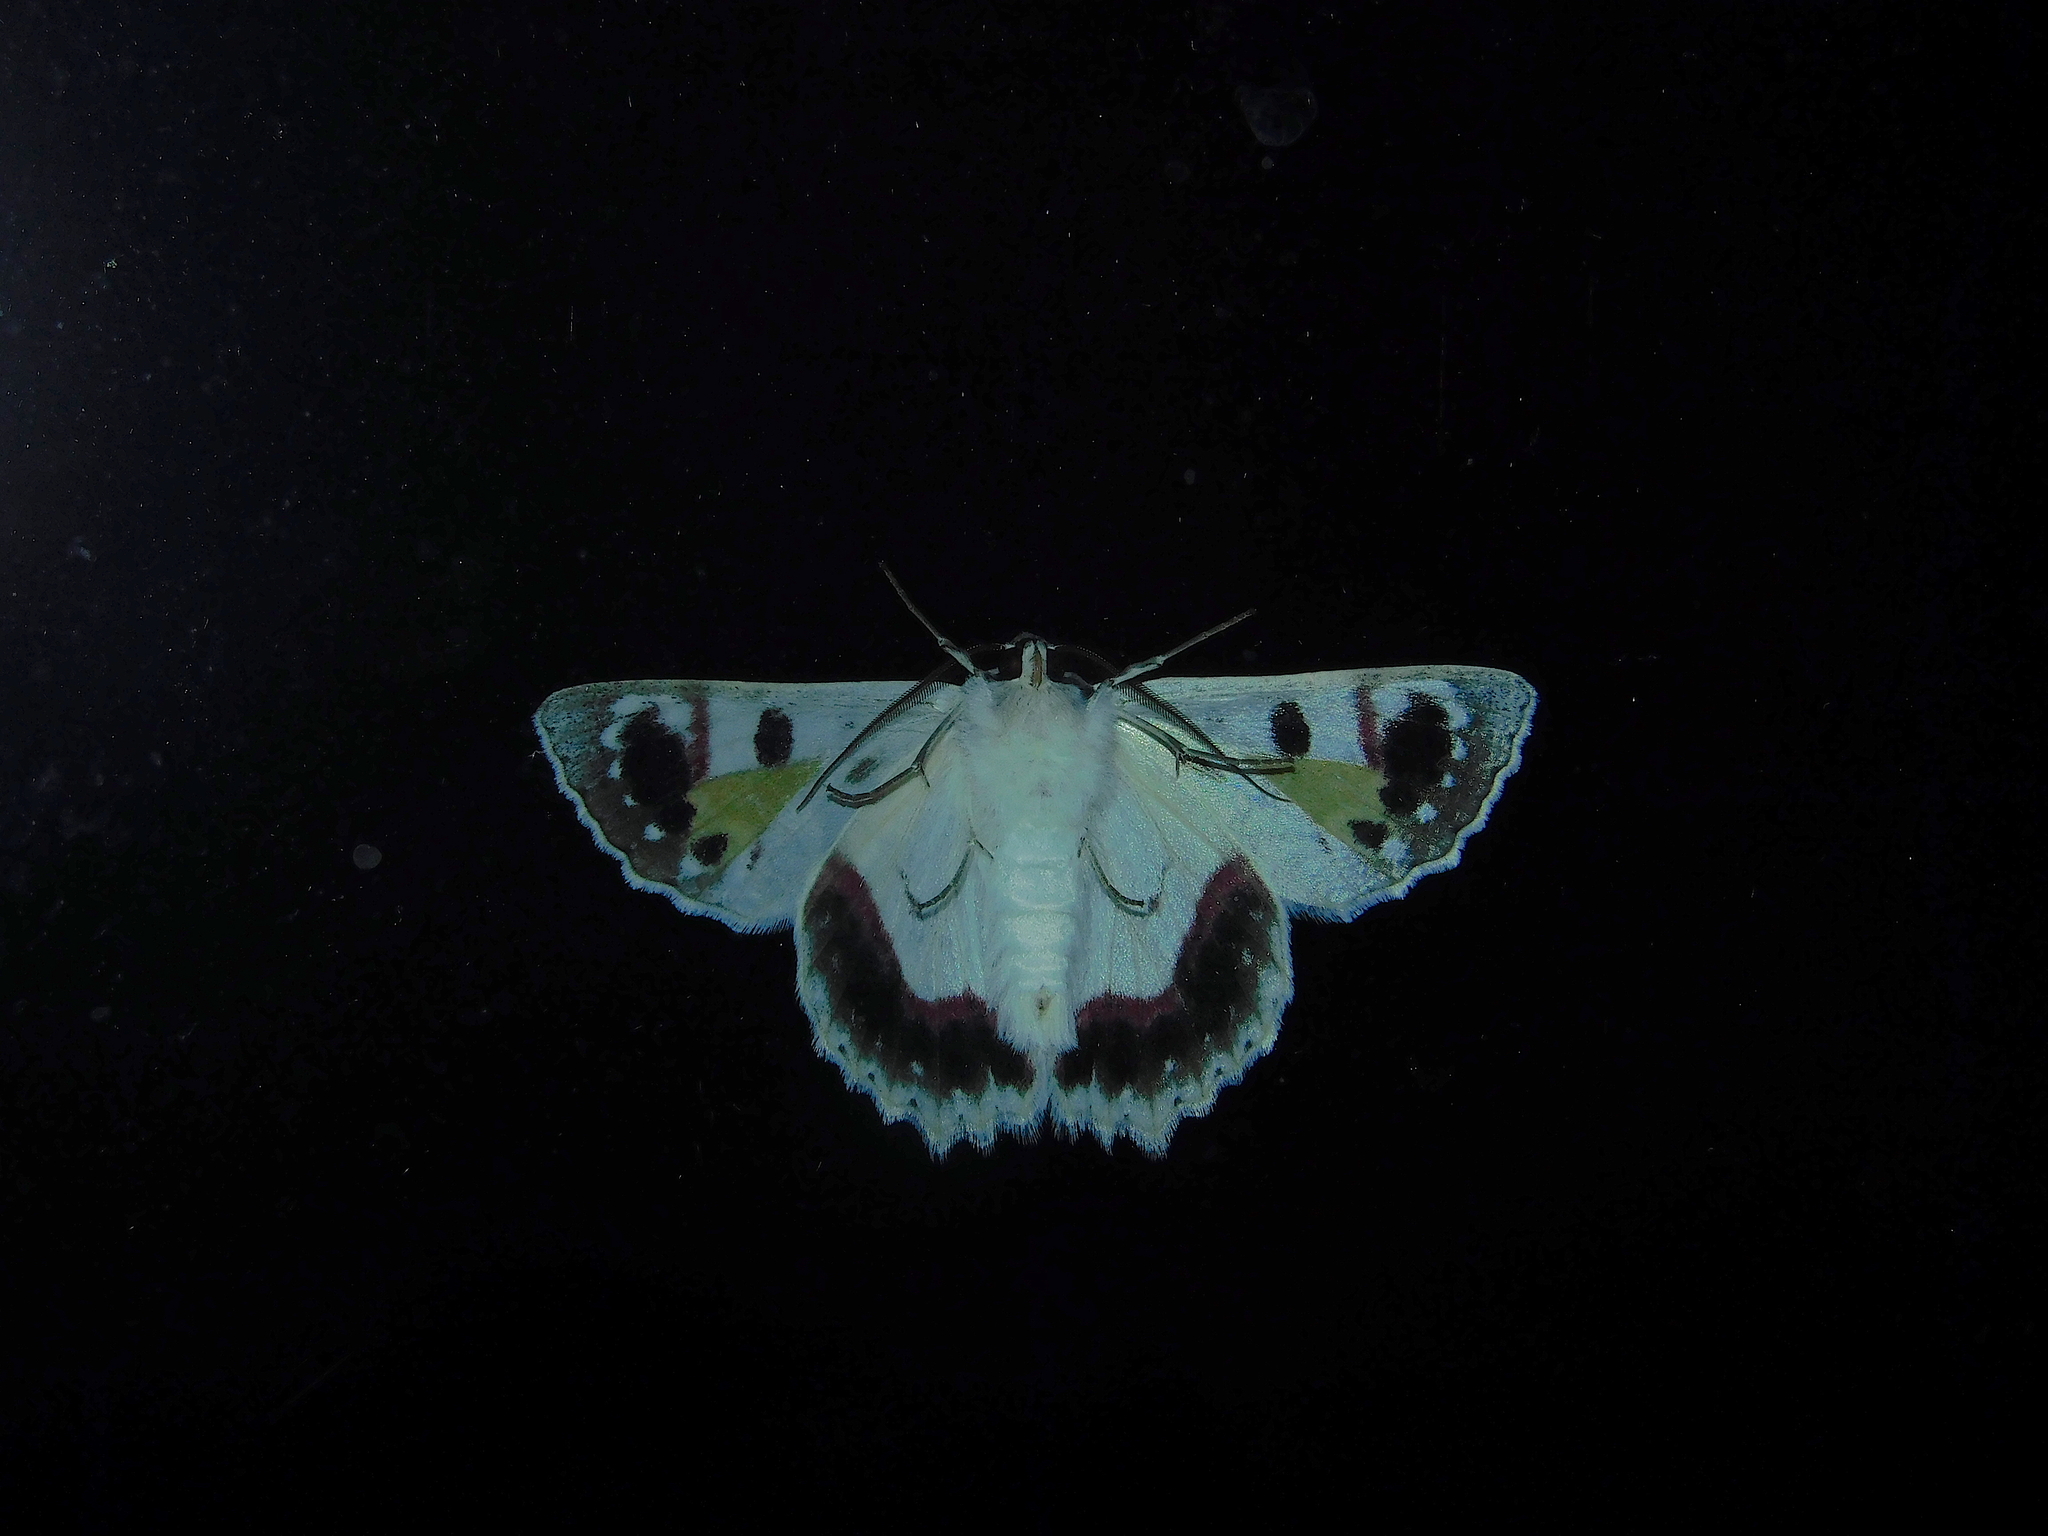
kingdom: Animalia
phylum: Arthropoda
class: Insecta
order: Lepidoptera
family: Geometridae
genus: Crypsiphona
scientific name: Crypsiphona
